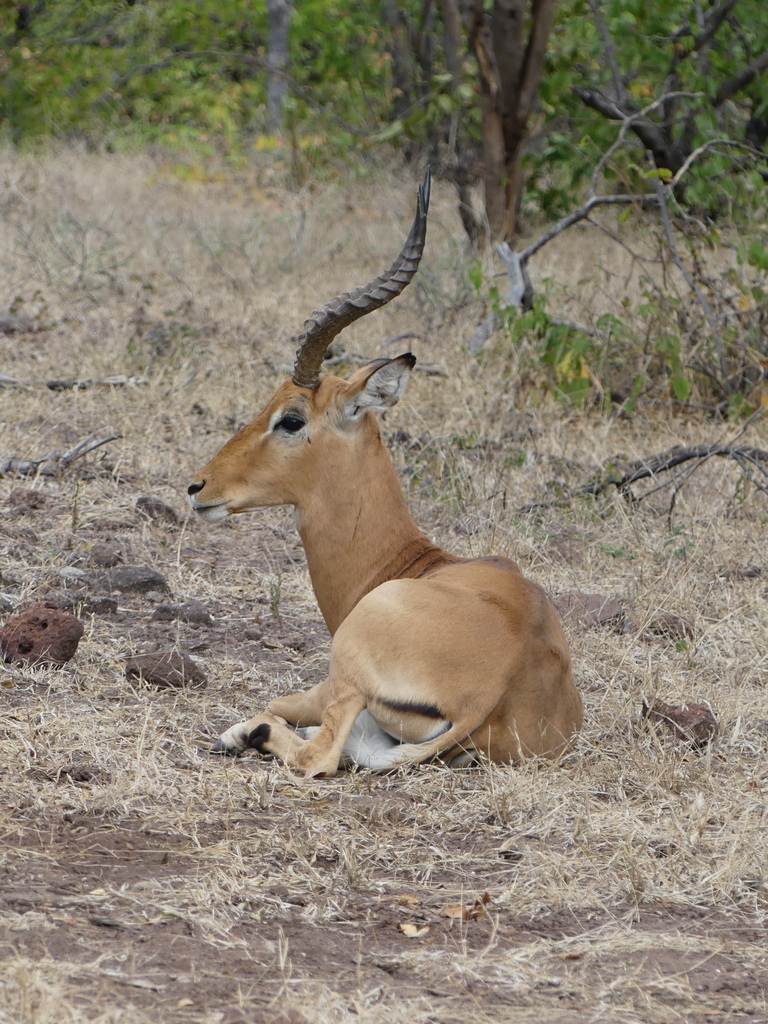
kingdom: Animalia
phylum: Chordata
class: Mammalia
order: Artiodactyla
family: Bovidae
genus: Aepyceros
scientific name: Aepyceros melampus
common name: Impala
